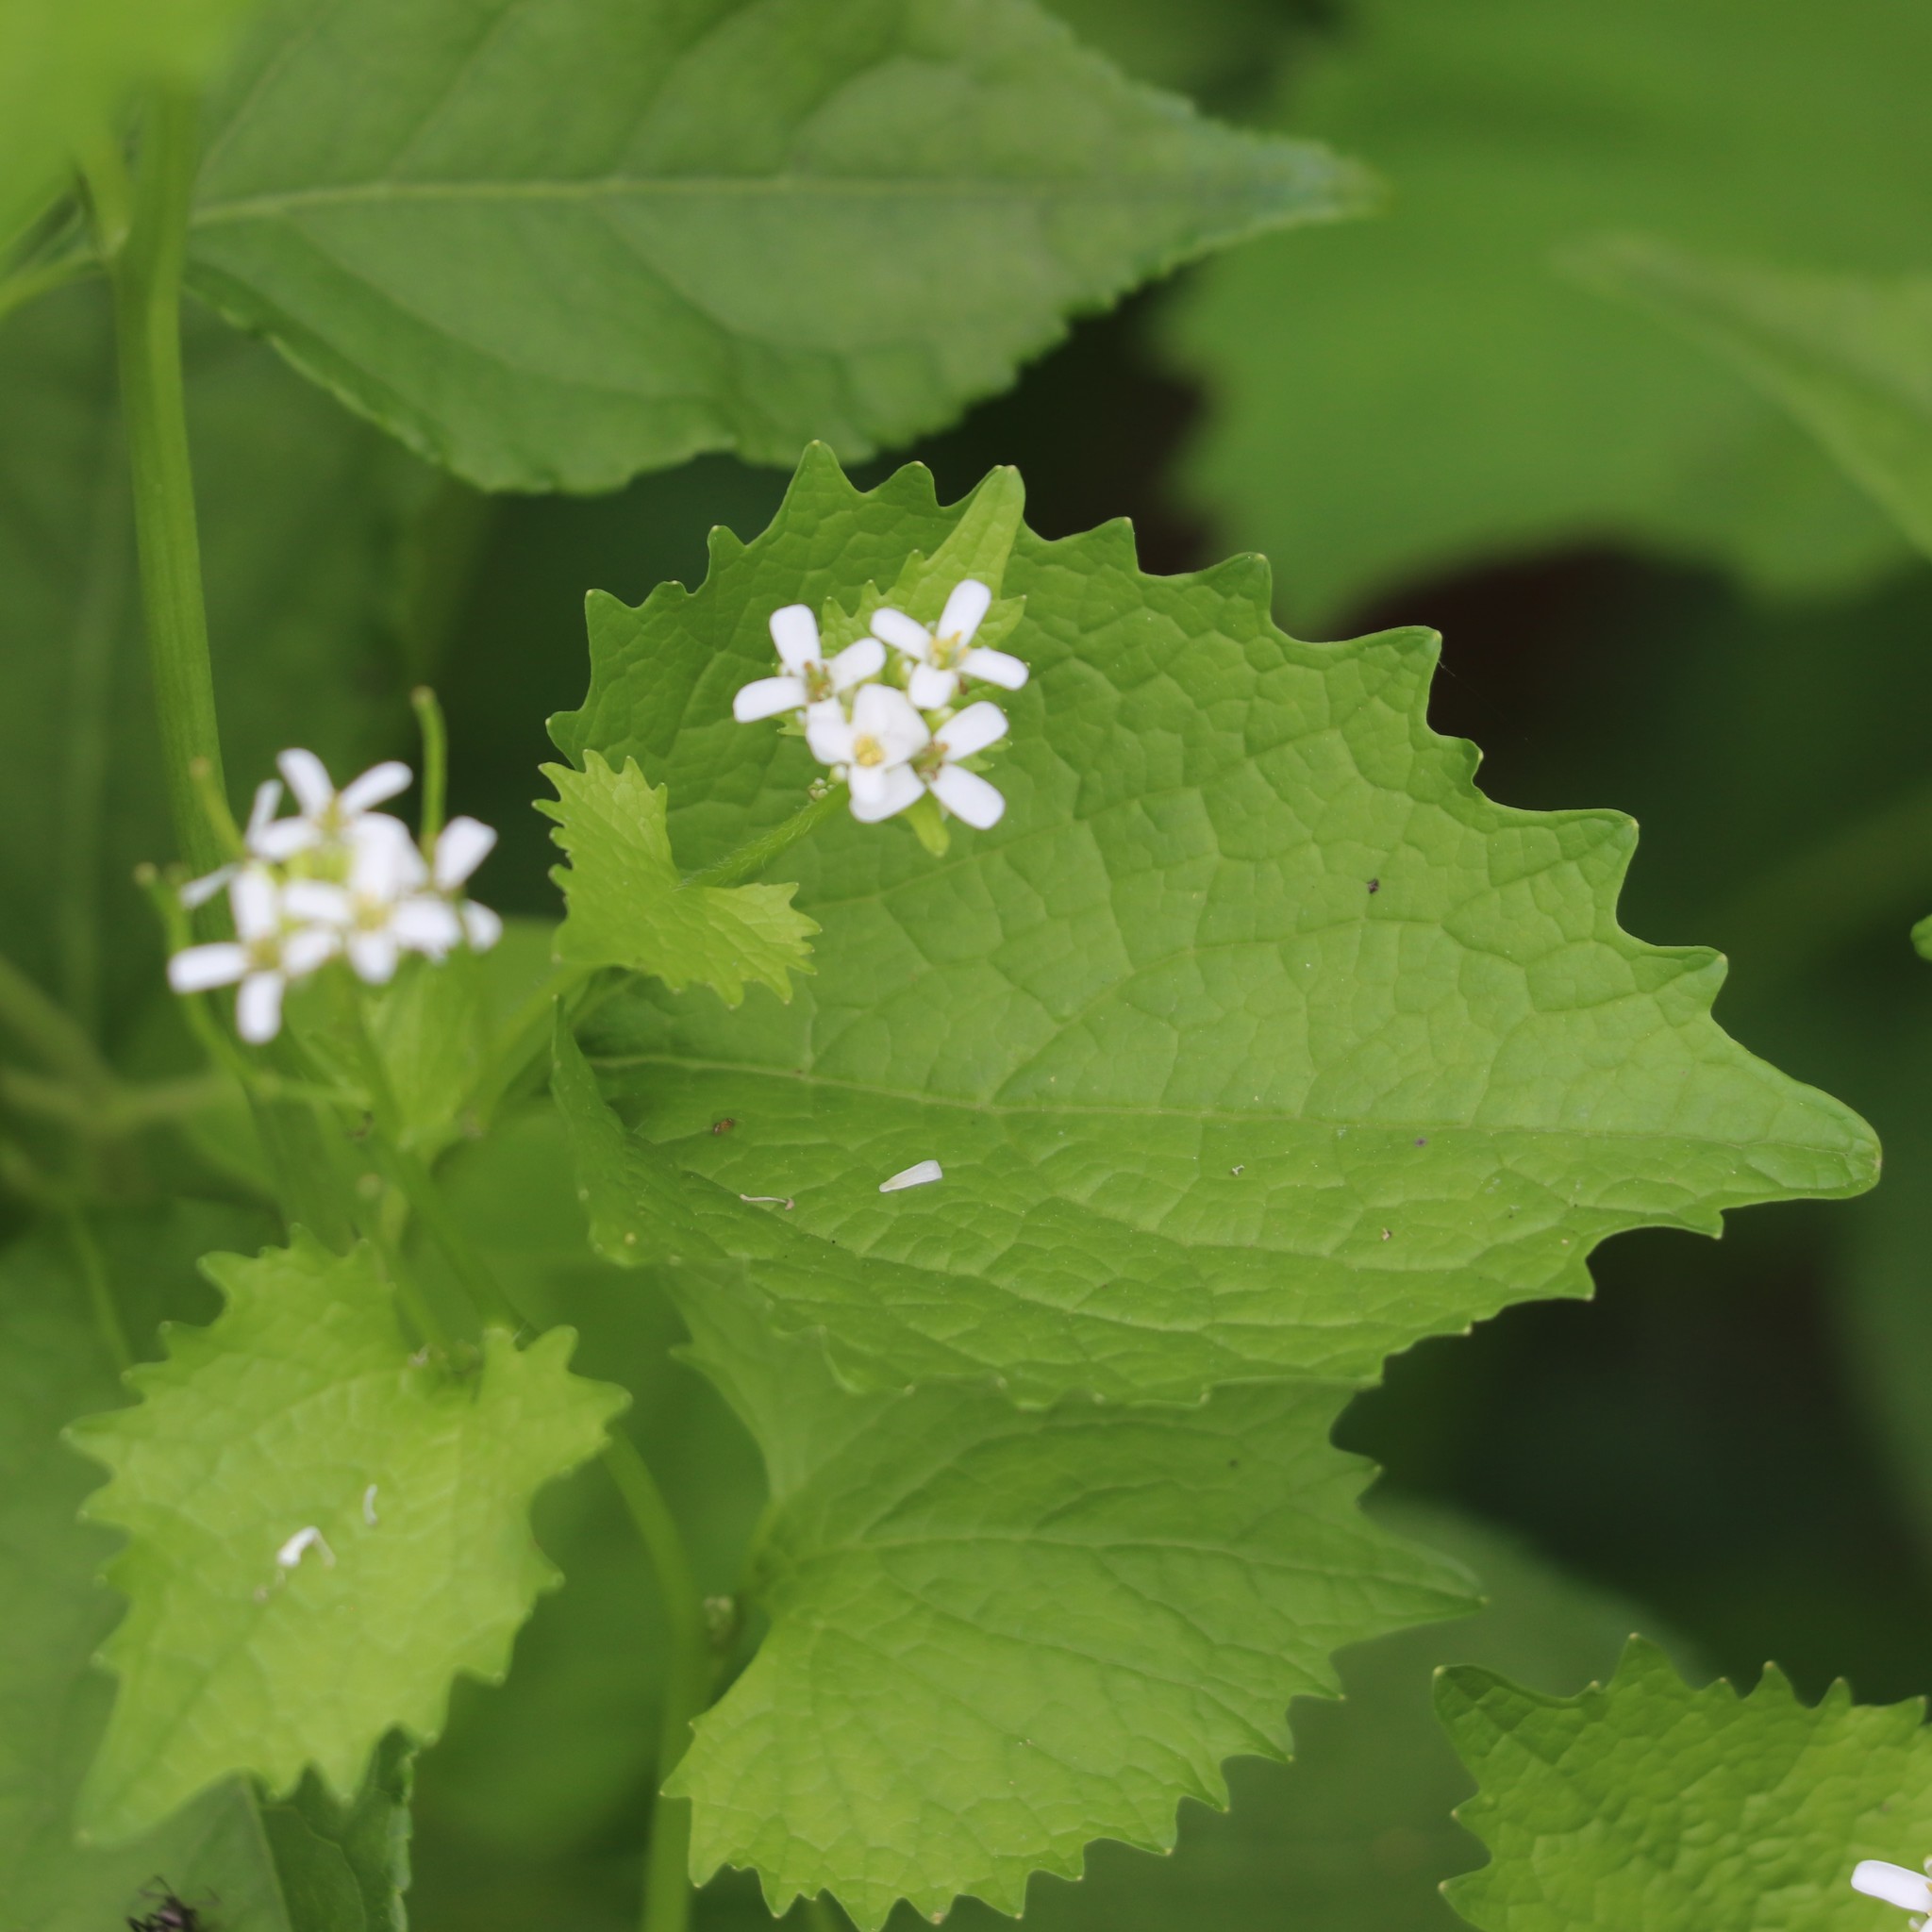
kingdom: Plantae
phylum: Tracheophyta
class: Magnoliopsida
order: Brassicales
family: Brassicaceae
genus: Alliaria
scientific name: Alliaria petiolata
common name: Garlic mustard
